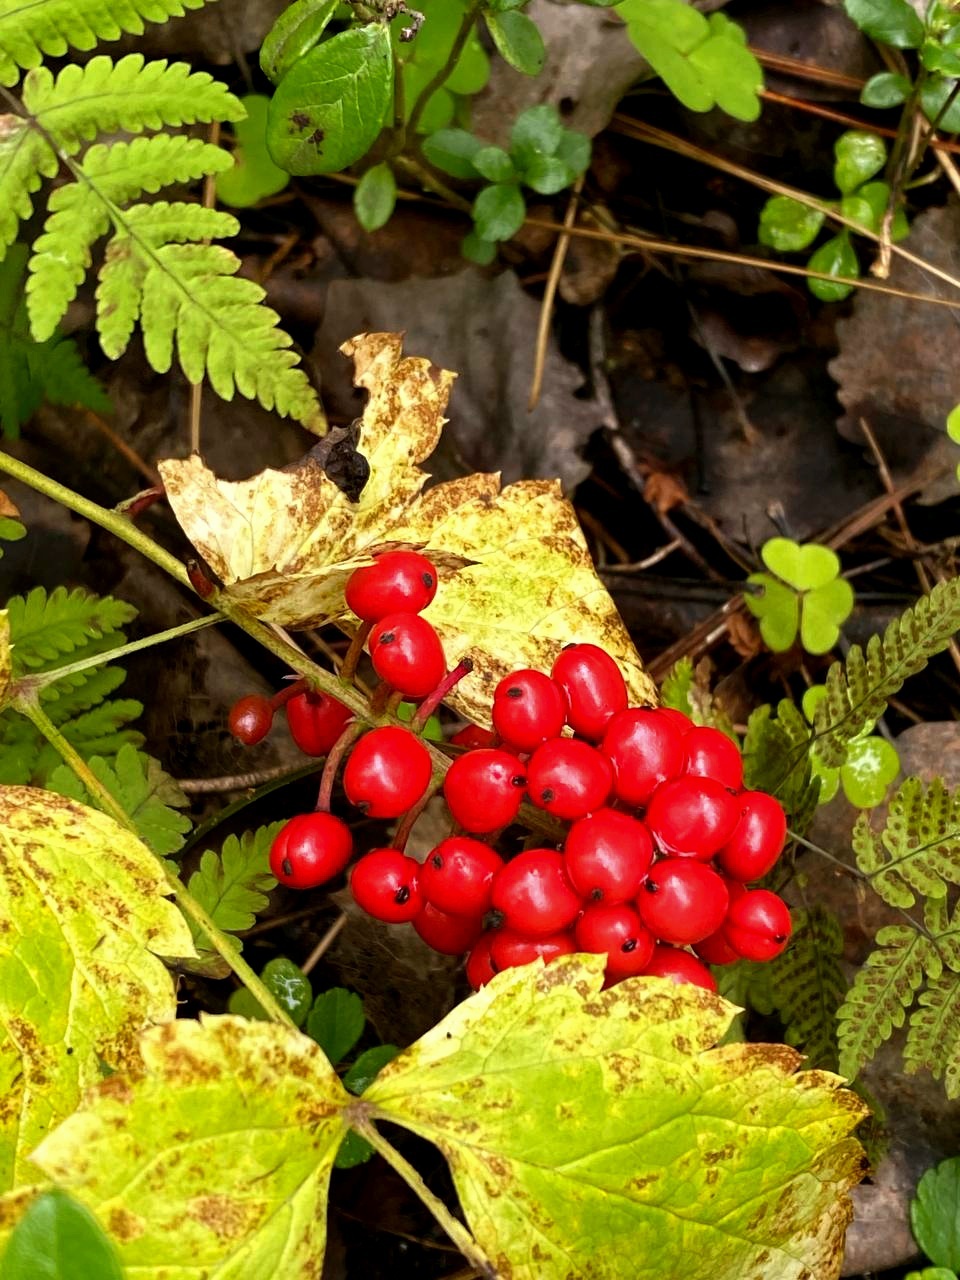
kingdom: Plantae
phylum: Tracheophyta
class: Magnoliopsida
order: Ranunculales
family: Ranunculaceae
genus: Actaea
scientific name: Actaea erythrocarpa
